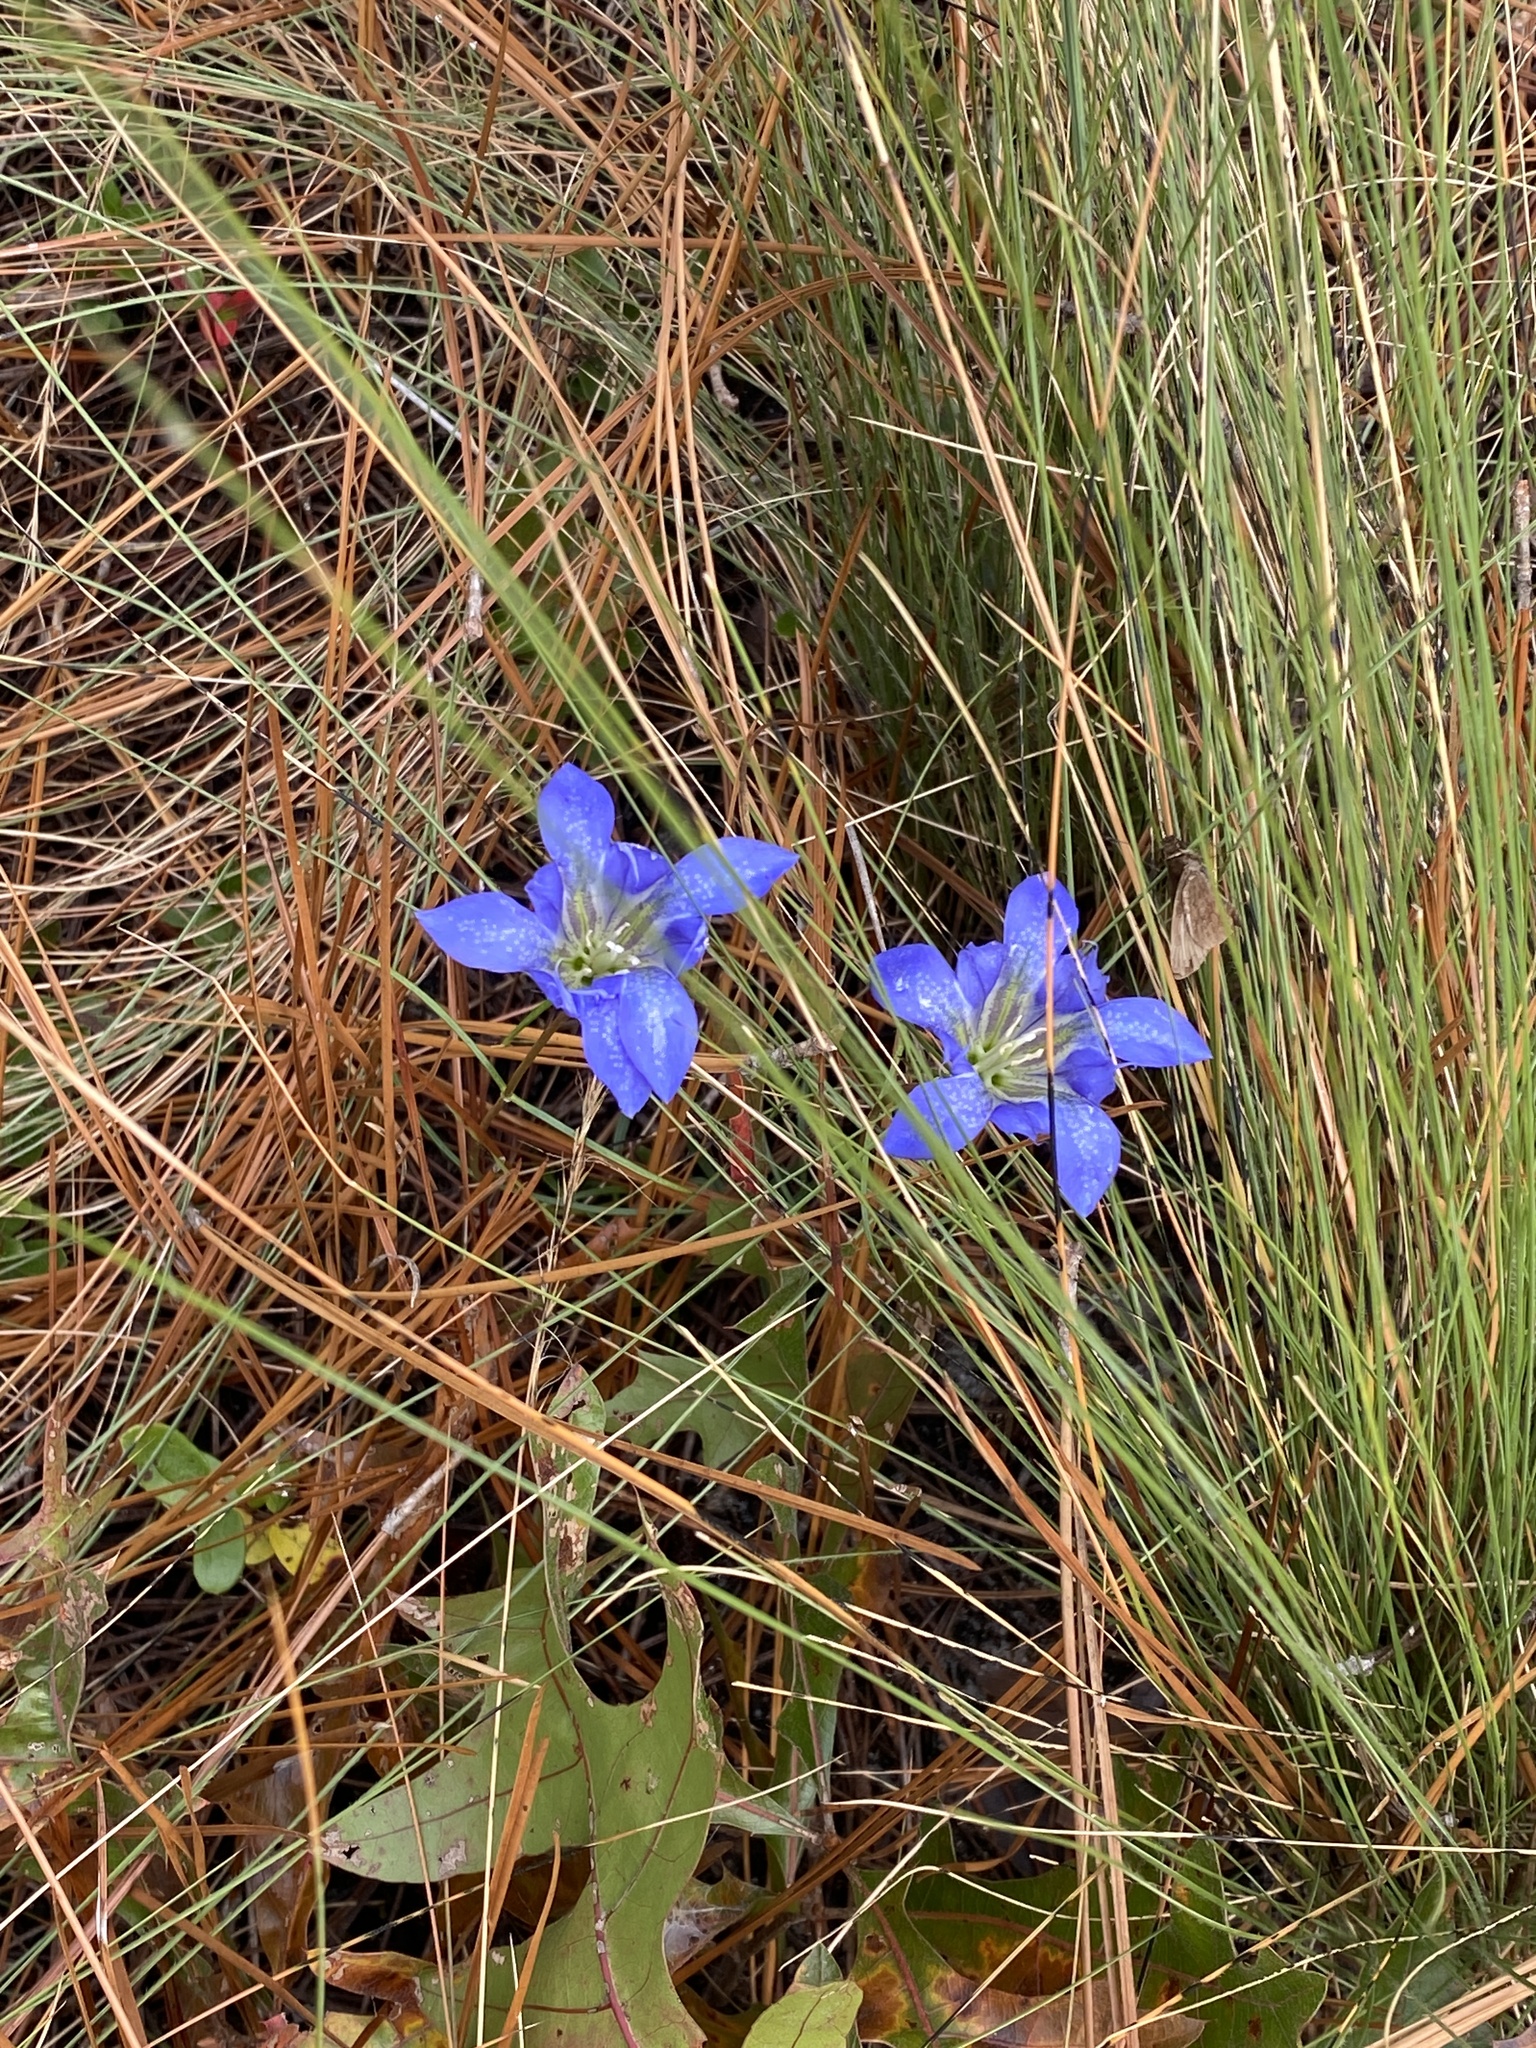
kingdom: Plantae
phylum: Tracheophyta
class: Magnoliopsida
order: Gentianales
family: Gentianaceae
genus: Gentiana
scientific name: Gentiana autumnalis
